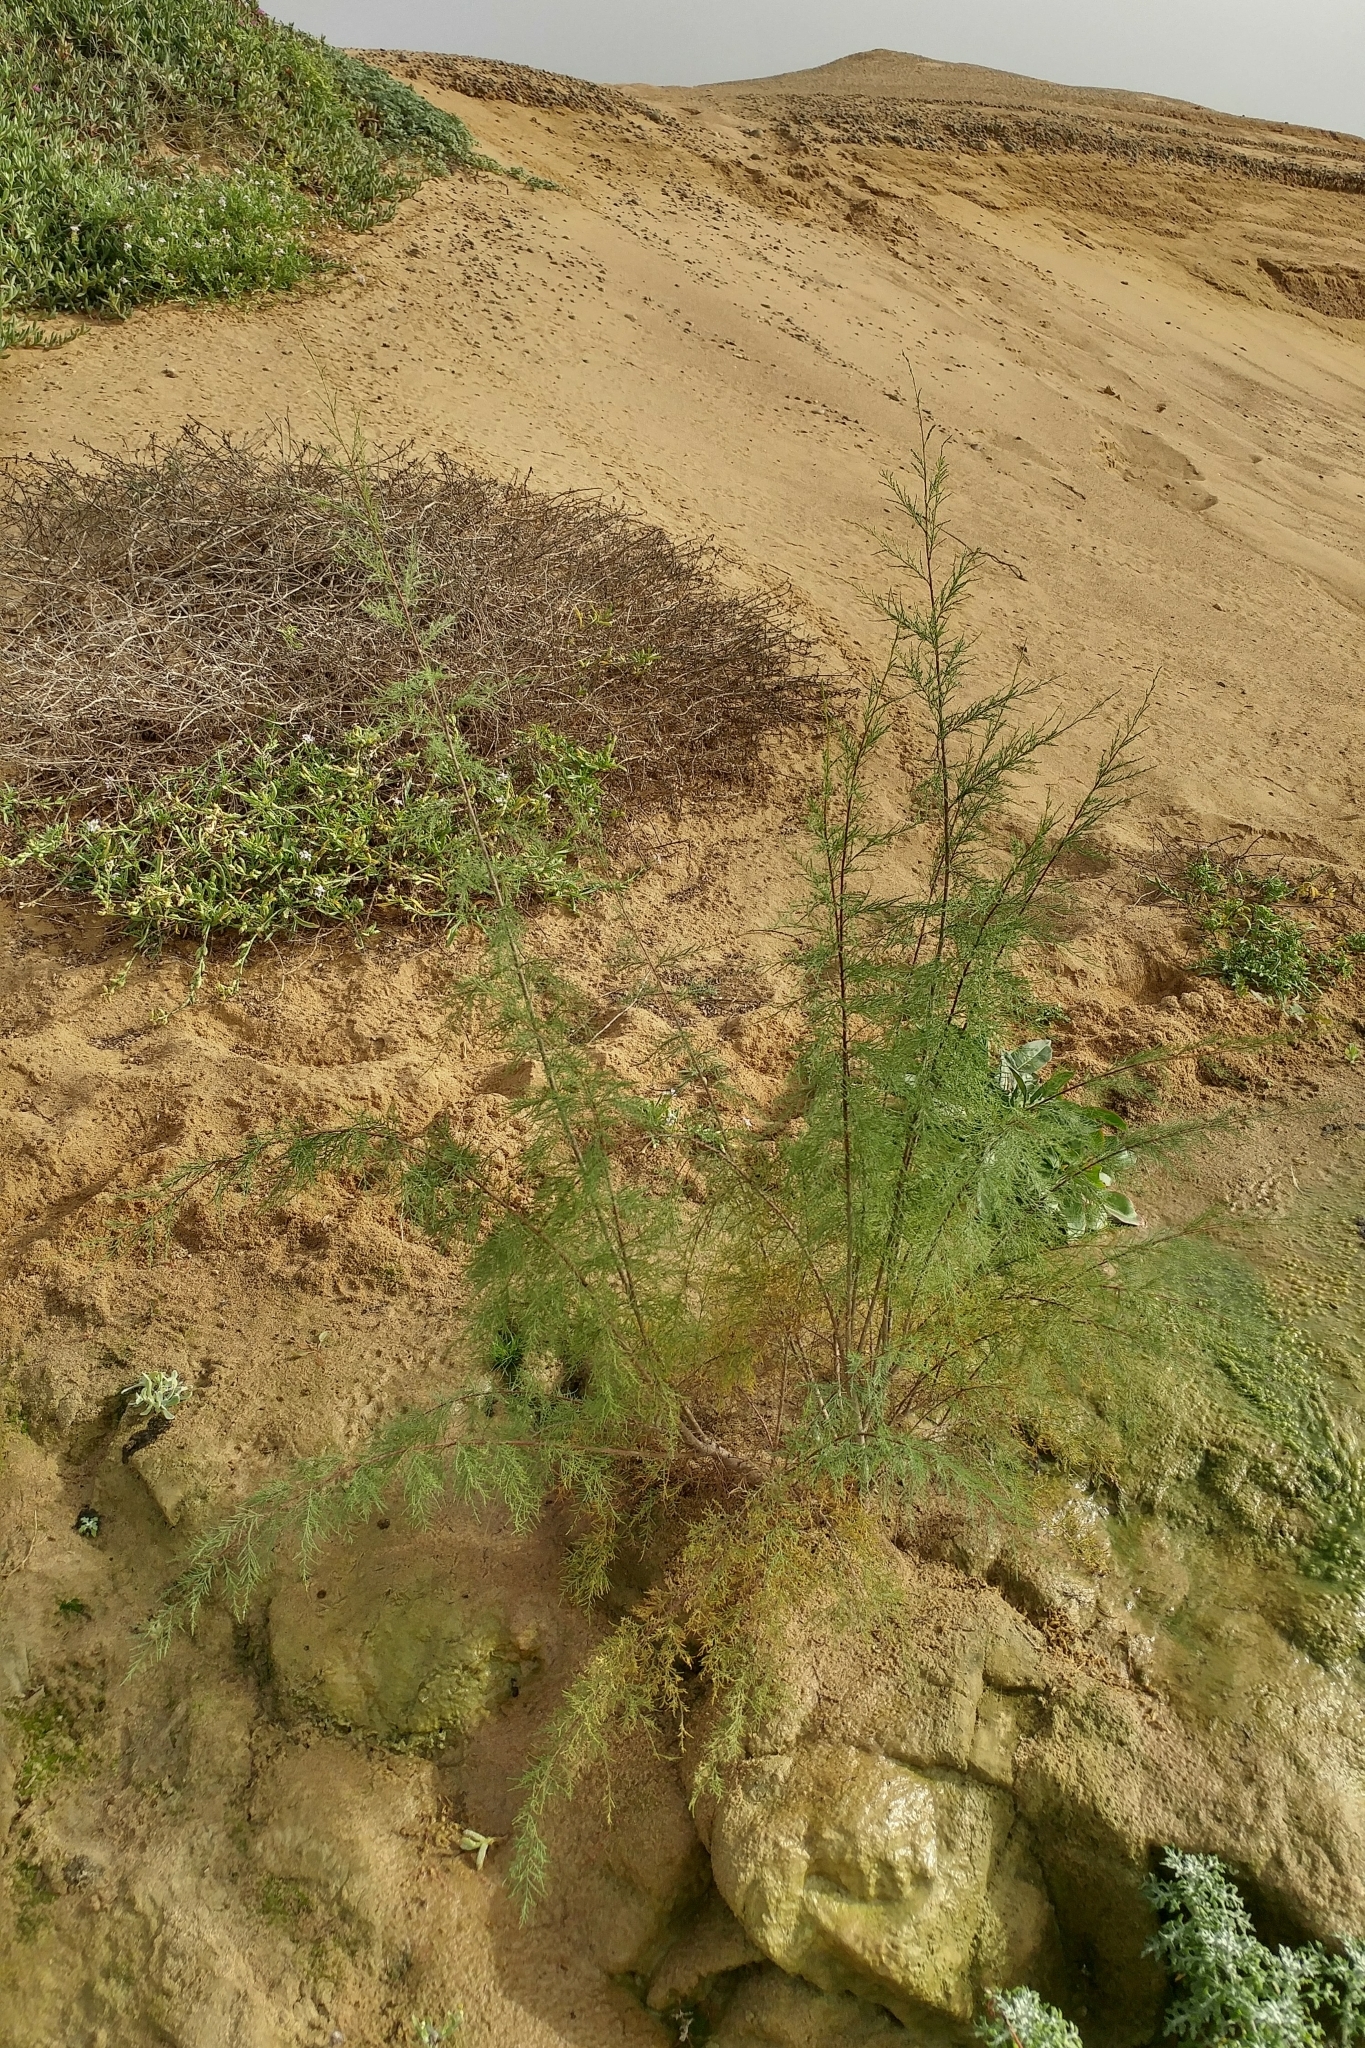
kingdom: Plantae
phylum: Tracheophyta
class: Magnoliopsida
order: Caryophyllales
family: Tamaricaceae
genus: Tamarix
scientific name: Tamarix
